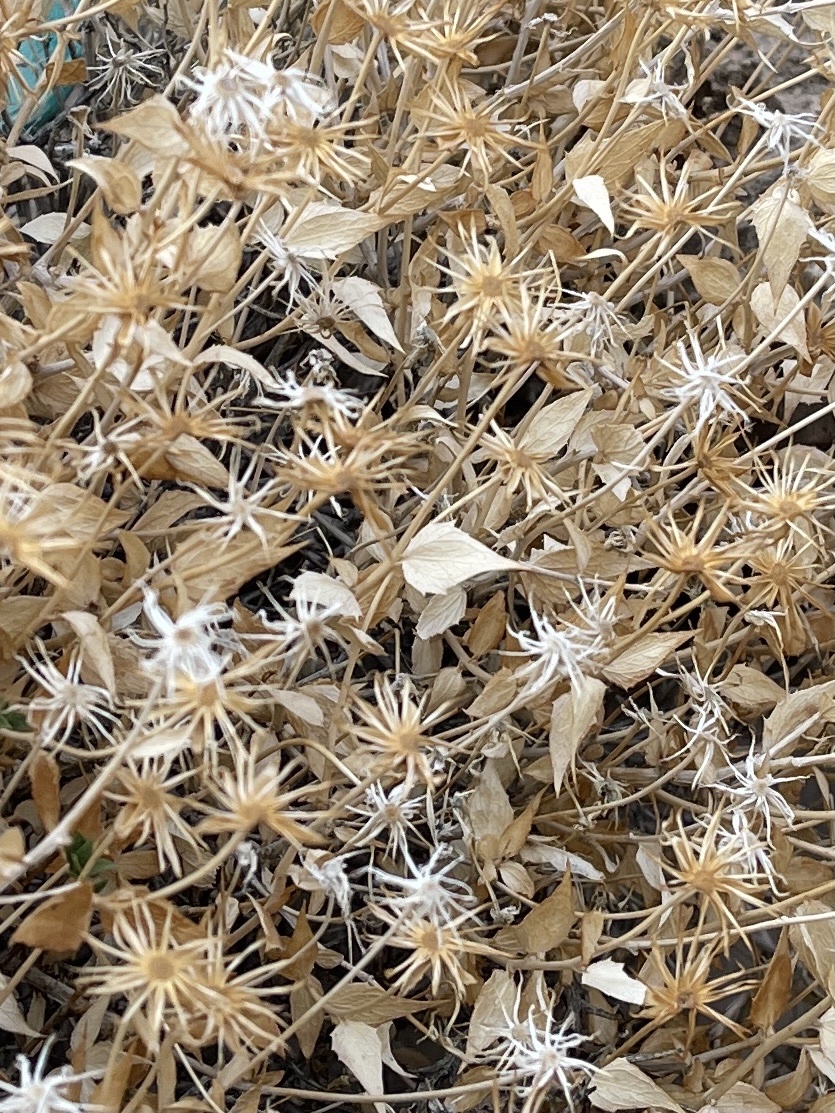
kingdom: Plantae
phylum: Tracheophyta
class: Magnoliopsida
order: Asterales
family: Asteraceae
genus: Xylorhiza
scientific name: Xylorhiza tortifolia
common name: Hurt-leaf woody-aster
